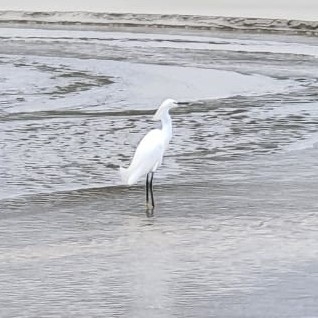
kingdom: Animalia
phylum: Chordata
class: Aves
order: Pelecaniformes
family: Ardeidae
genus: Egretta
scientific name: Egretta thula
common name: Snowy egret
